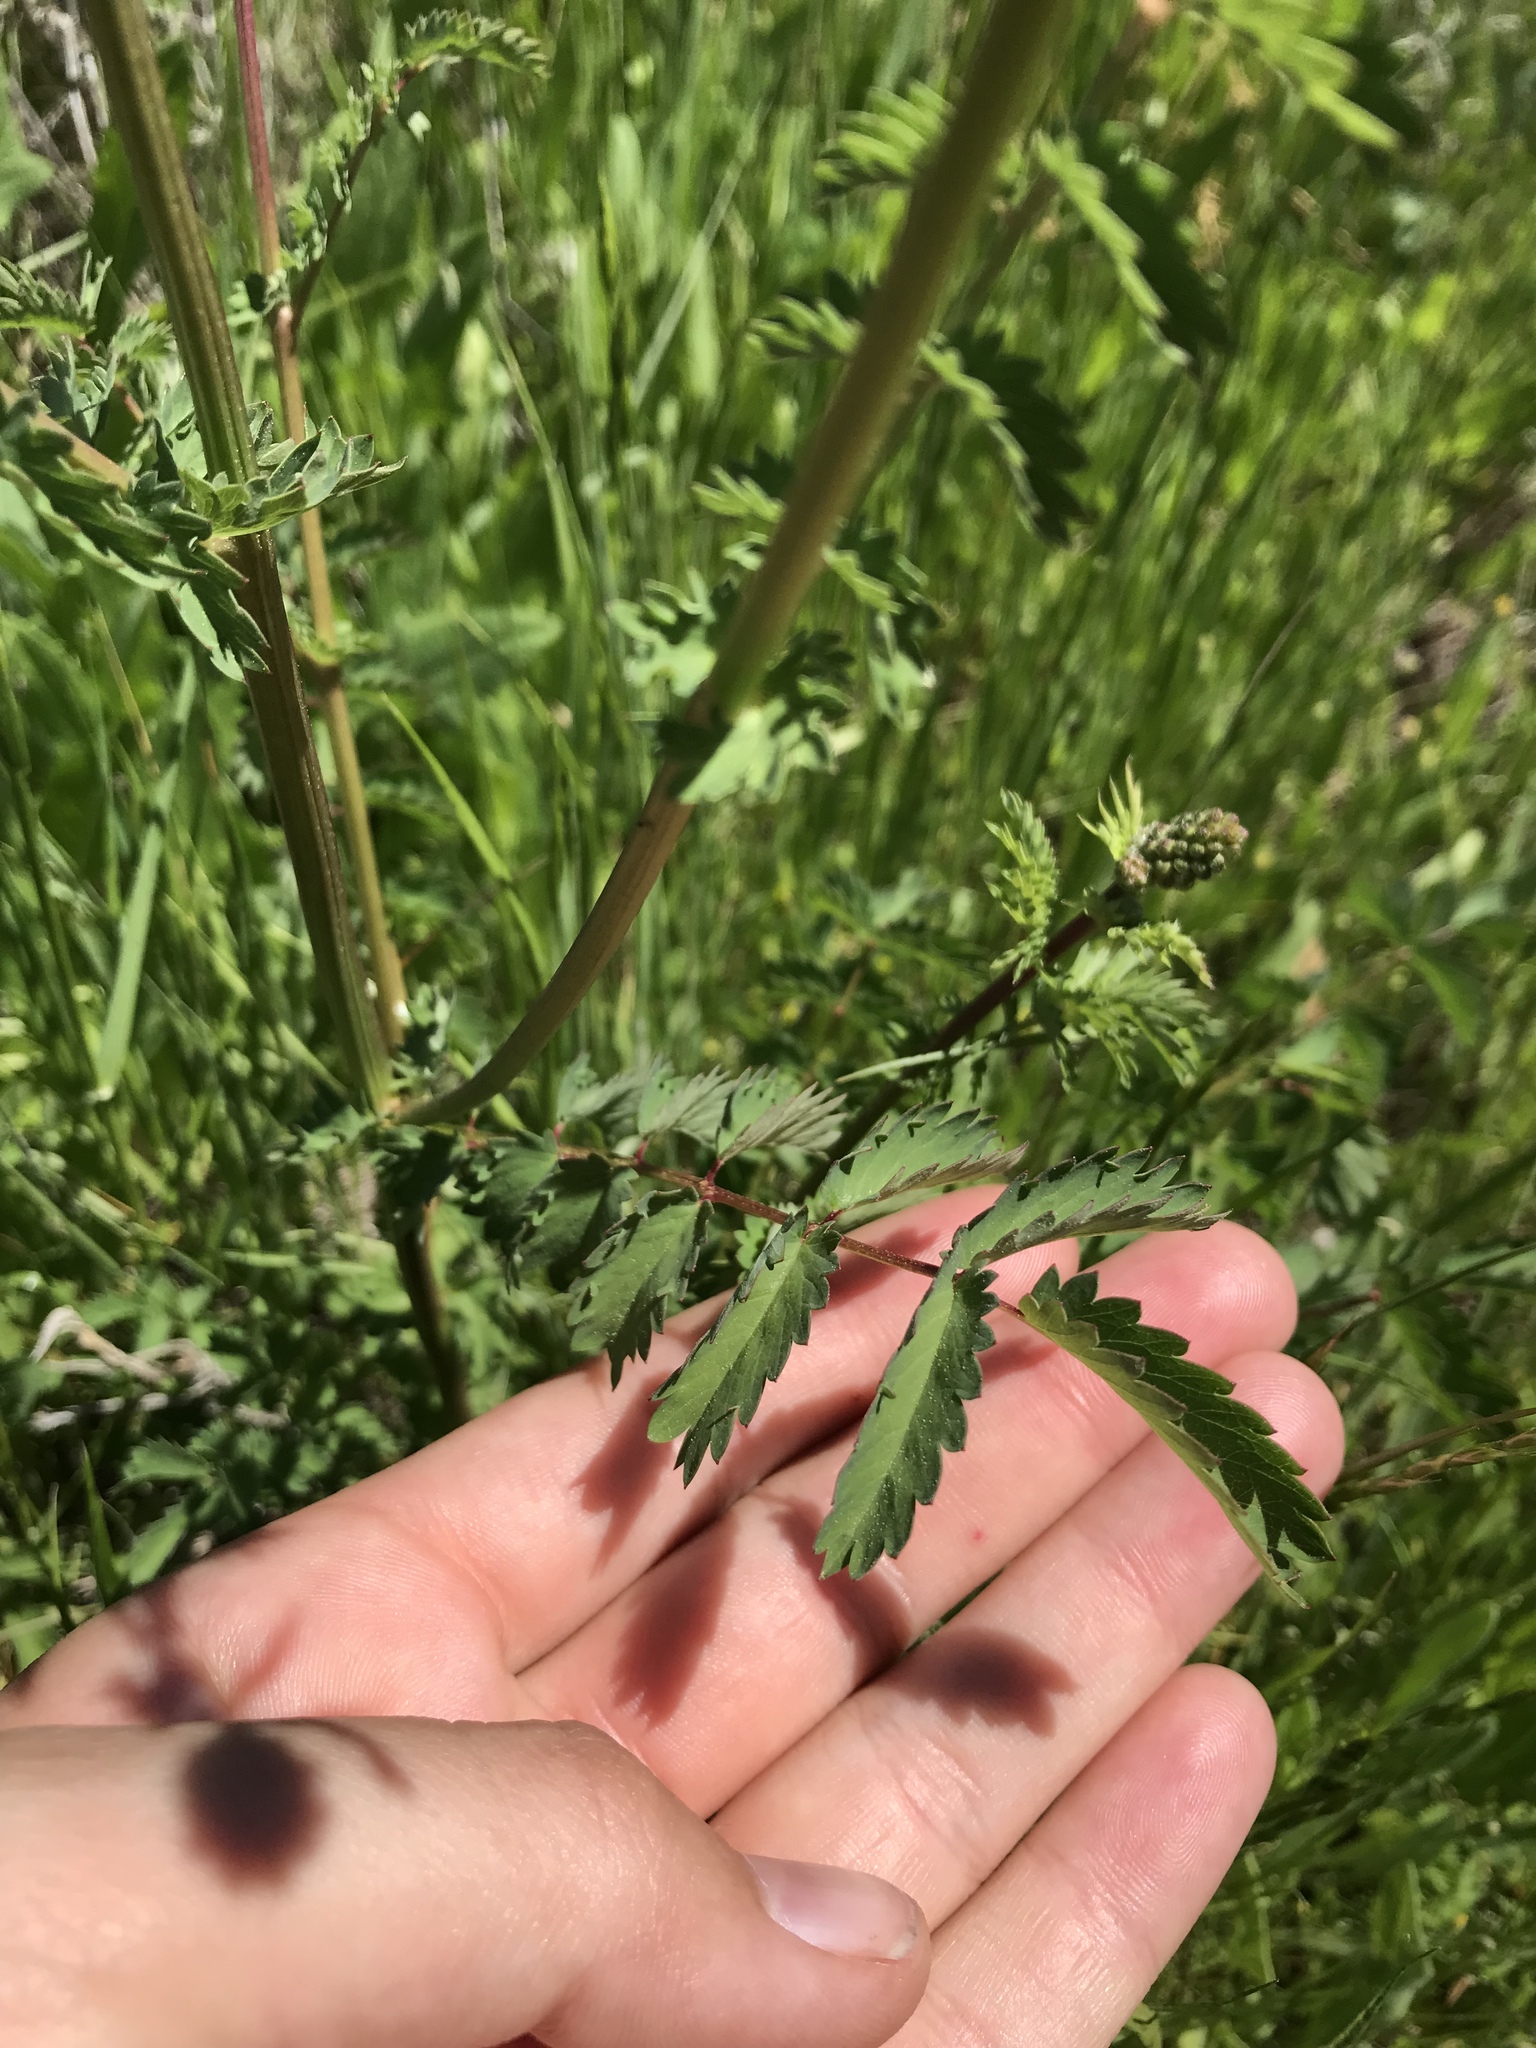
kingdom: Plantae
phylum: Tracheophyta
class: Magnoliopsida
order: Rosales
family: Rosaceae
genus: Poterium
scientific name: Poterium sanguisorba
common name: Salad burnet
